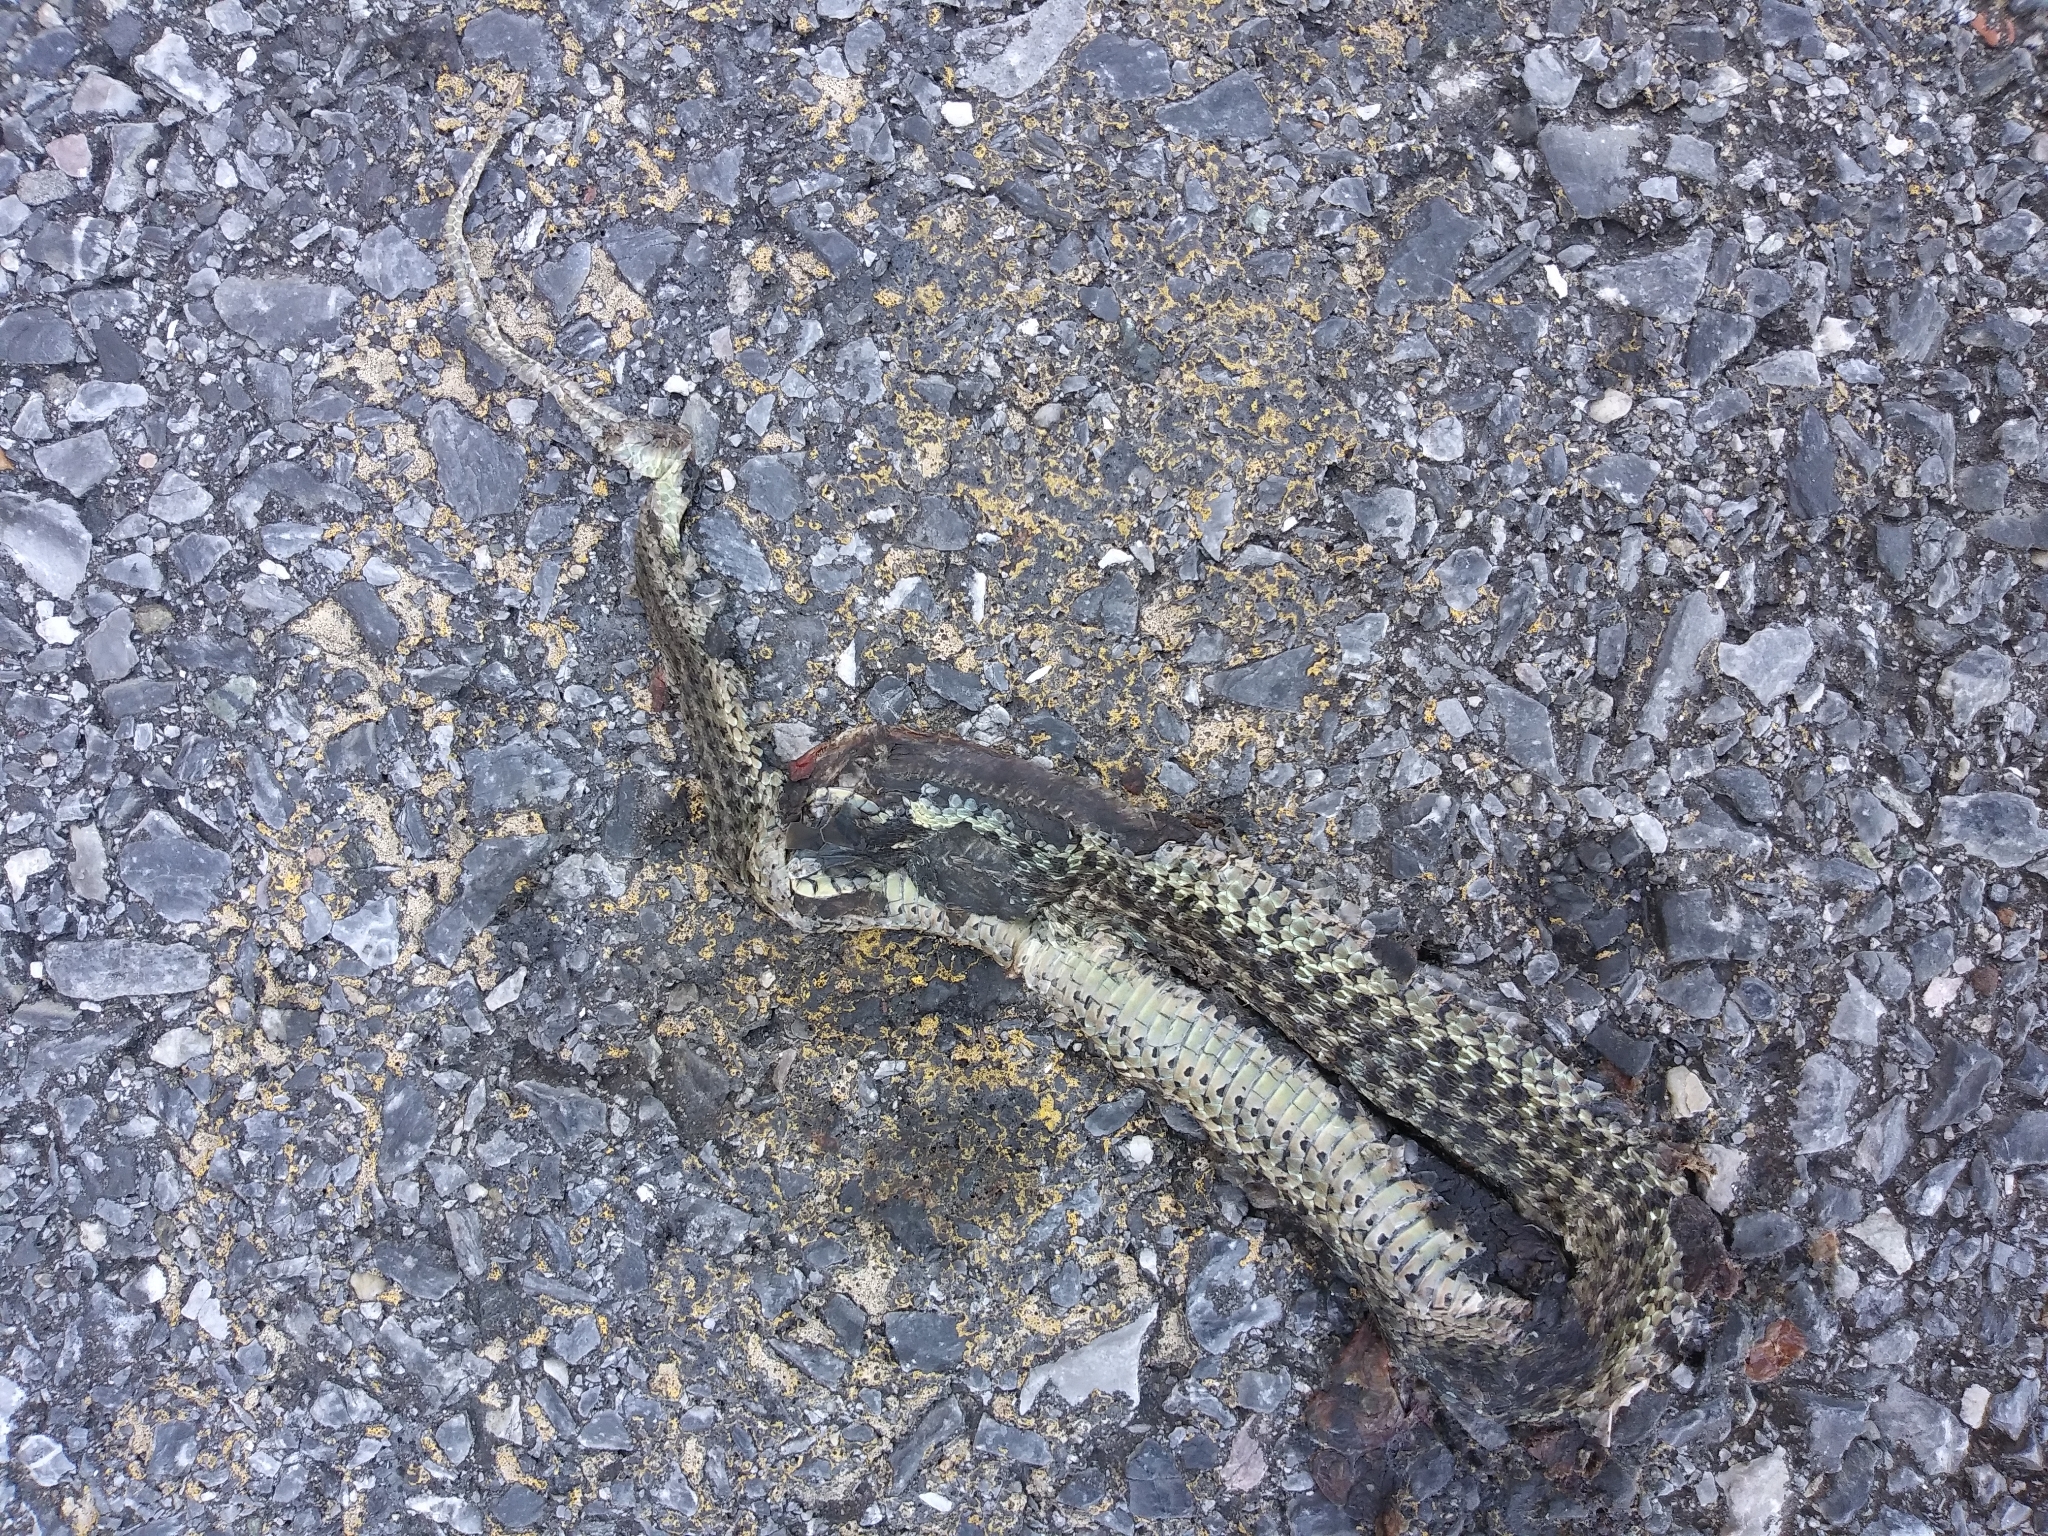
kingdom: Animalia
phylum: Chordata
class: Squamata
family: Colubridae
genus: Thamnophis
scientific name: Thamnophis sirtalis
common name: Common garter snake
